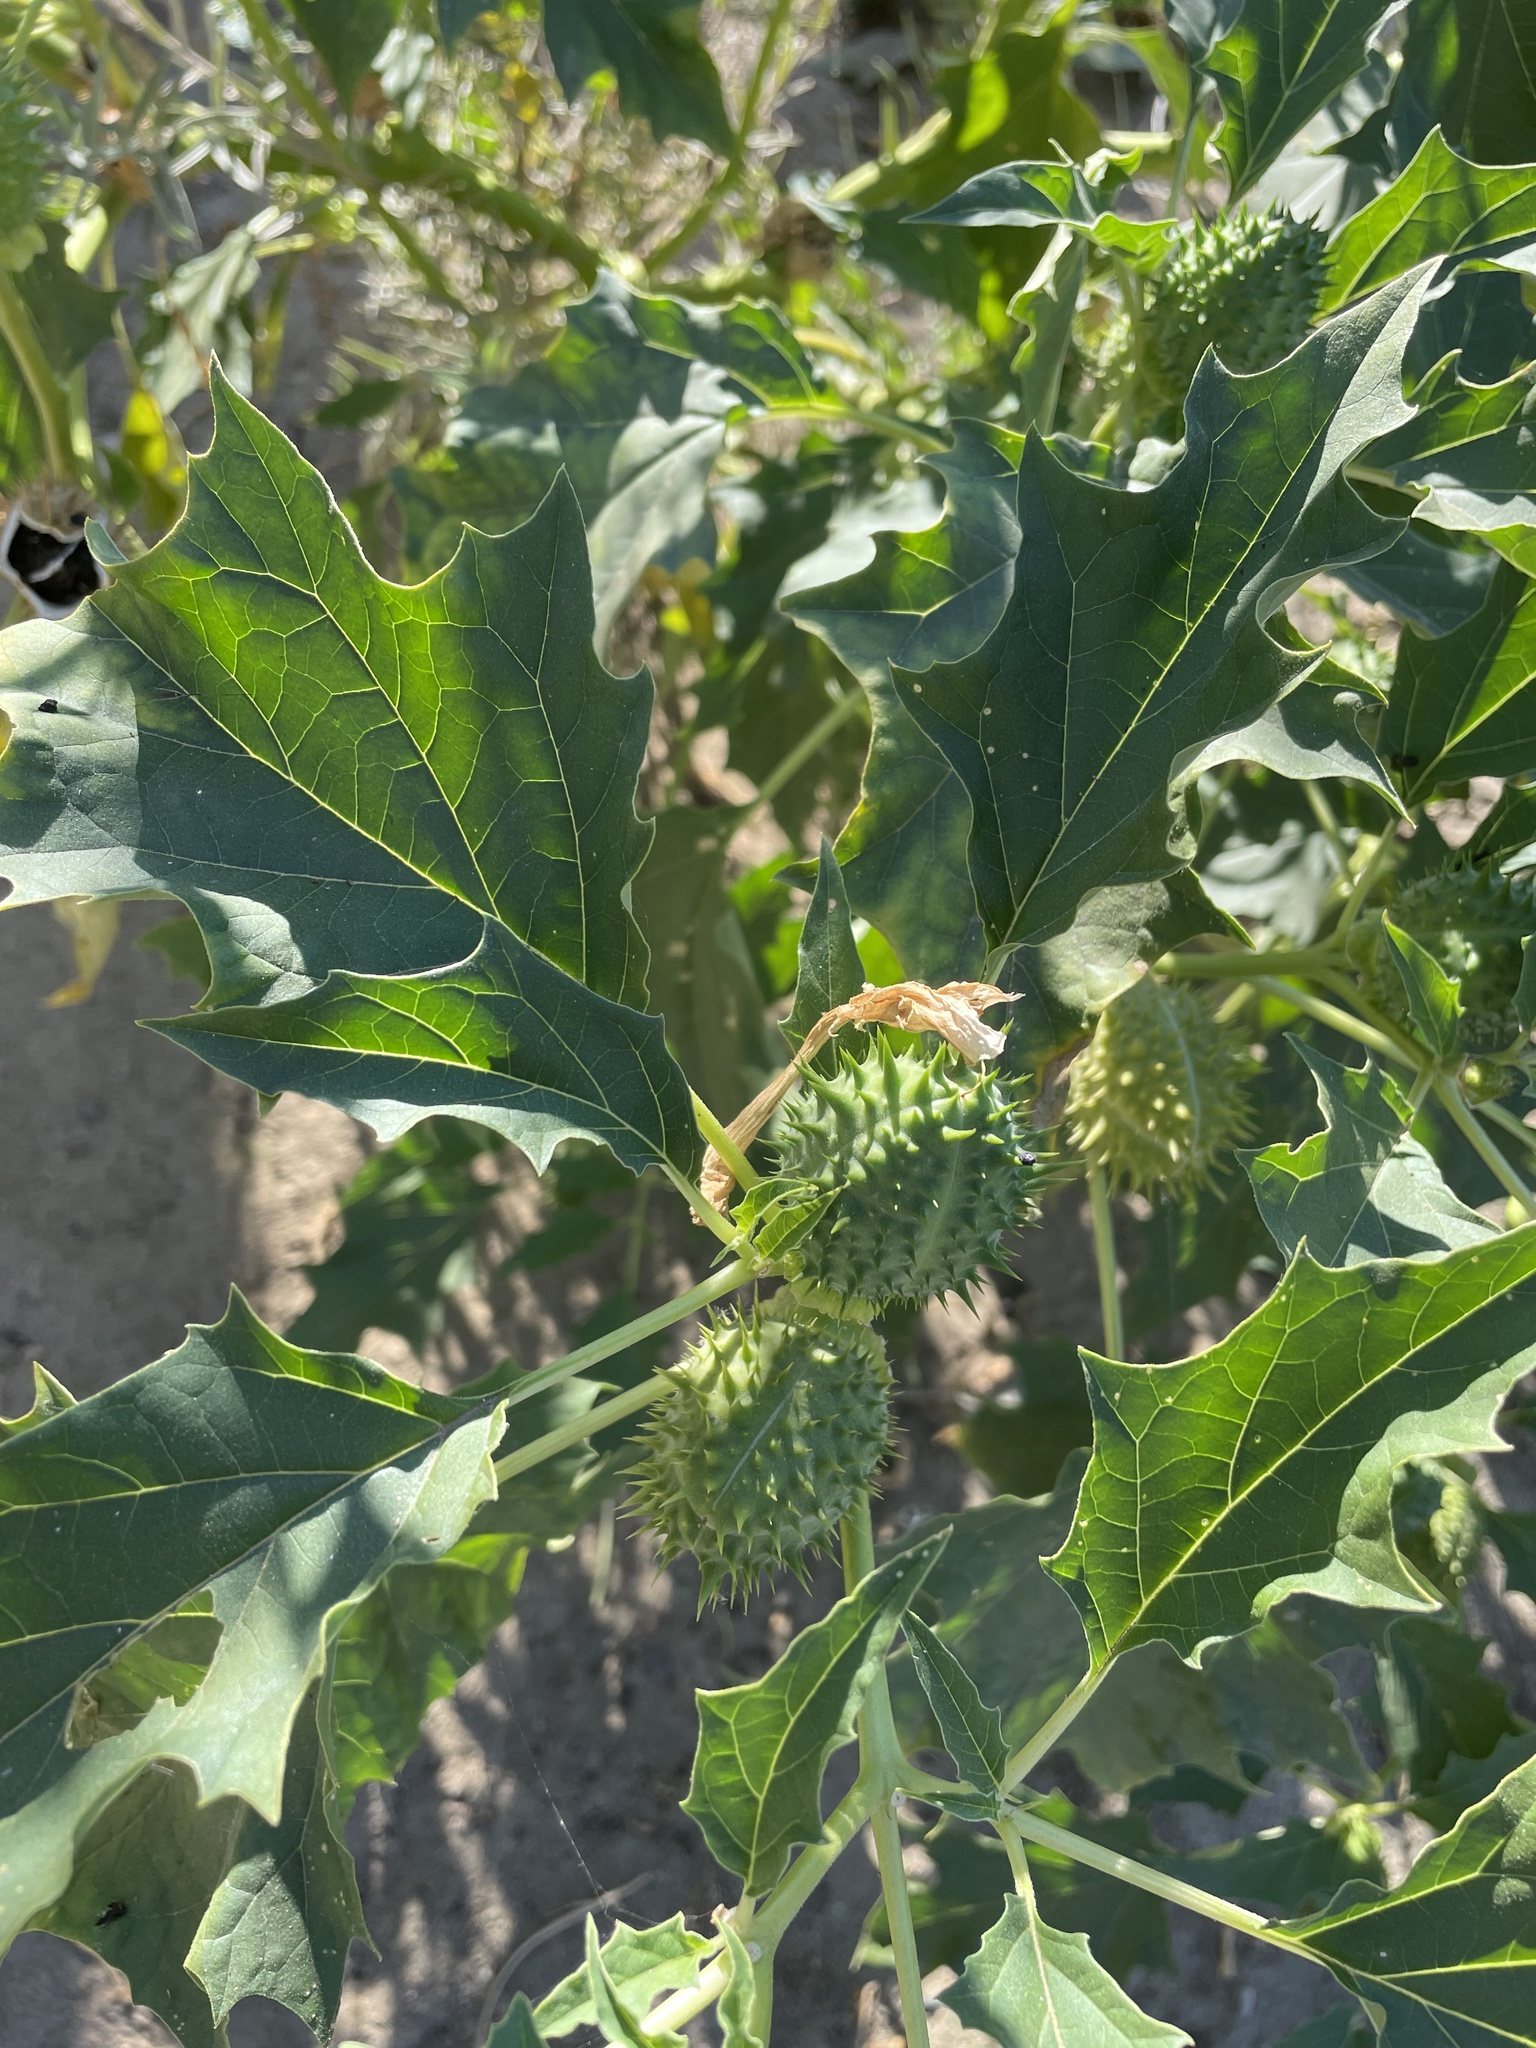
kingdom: Plantae
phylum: Tracheophyta
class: Magnoliopsida
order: Solanales
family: Solanaceae
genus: Datura
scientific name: Datura stramonium
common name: Thorn-apple
